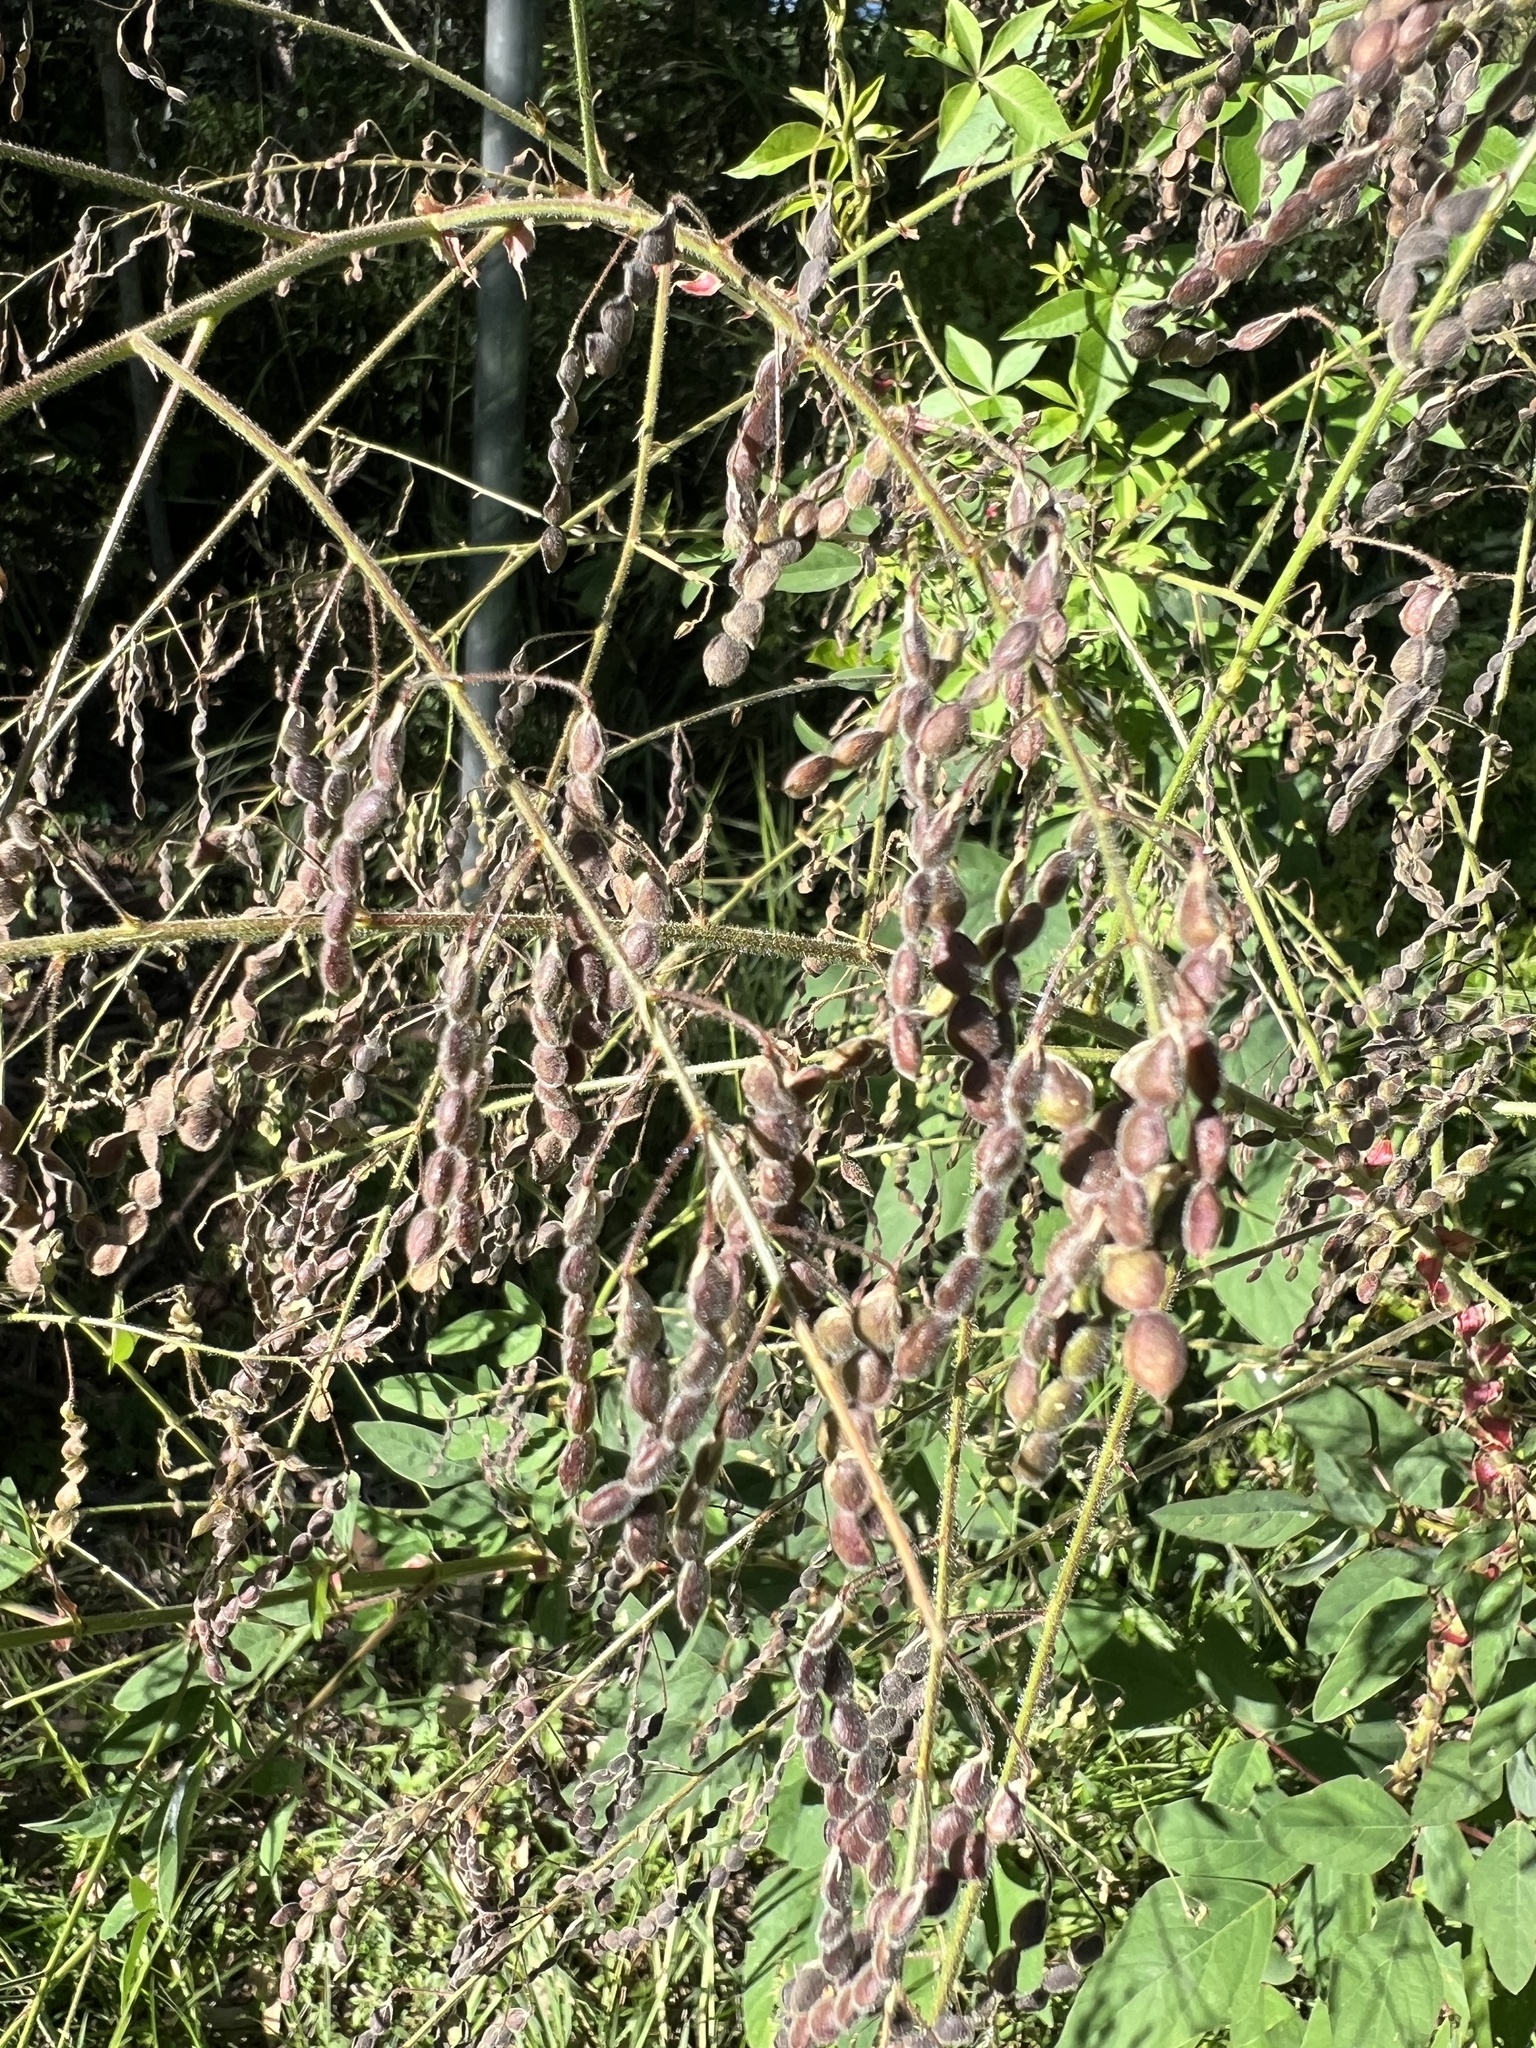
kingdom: Plantae
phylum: Tracheophyta
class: Magnoliopsida
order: Fabales
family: Fabaceae
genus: Desmodium
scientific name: Desmodium tortuosum
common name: Dixie ticktrefoil
